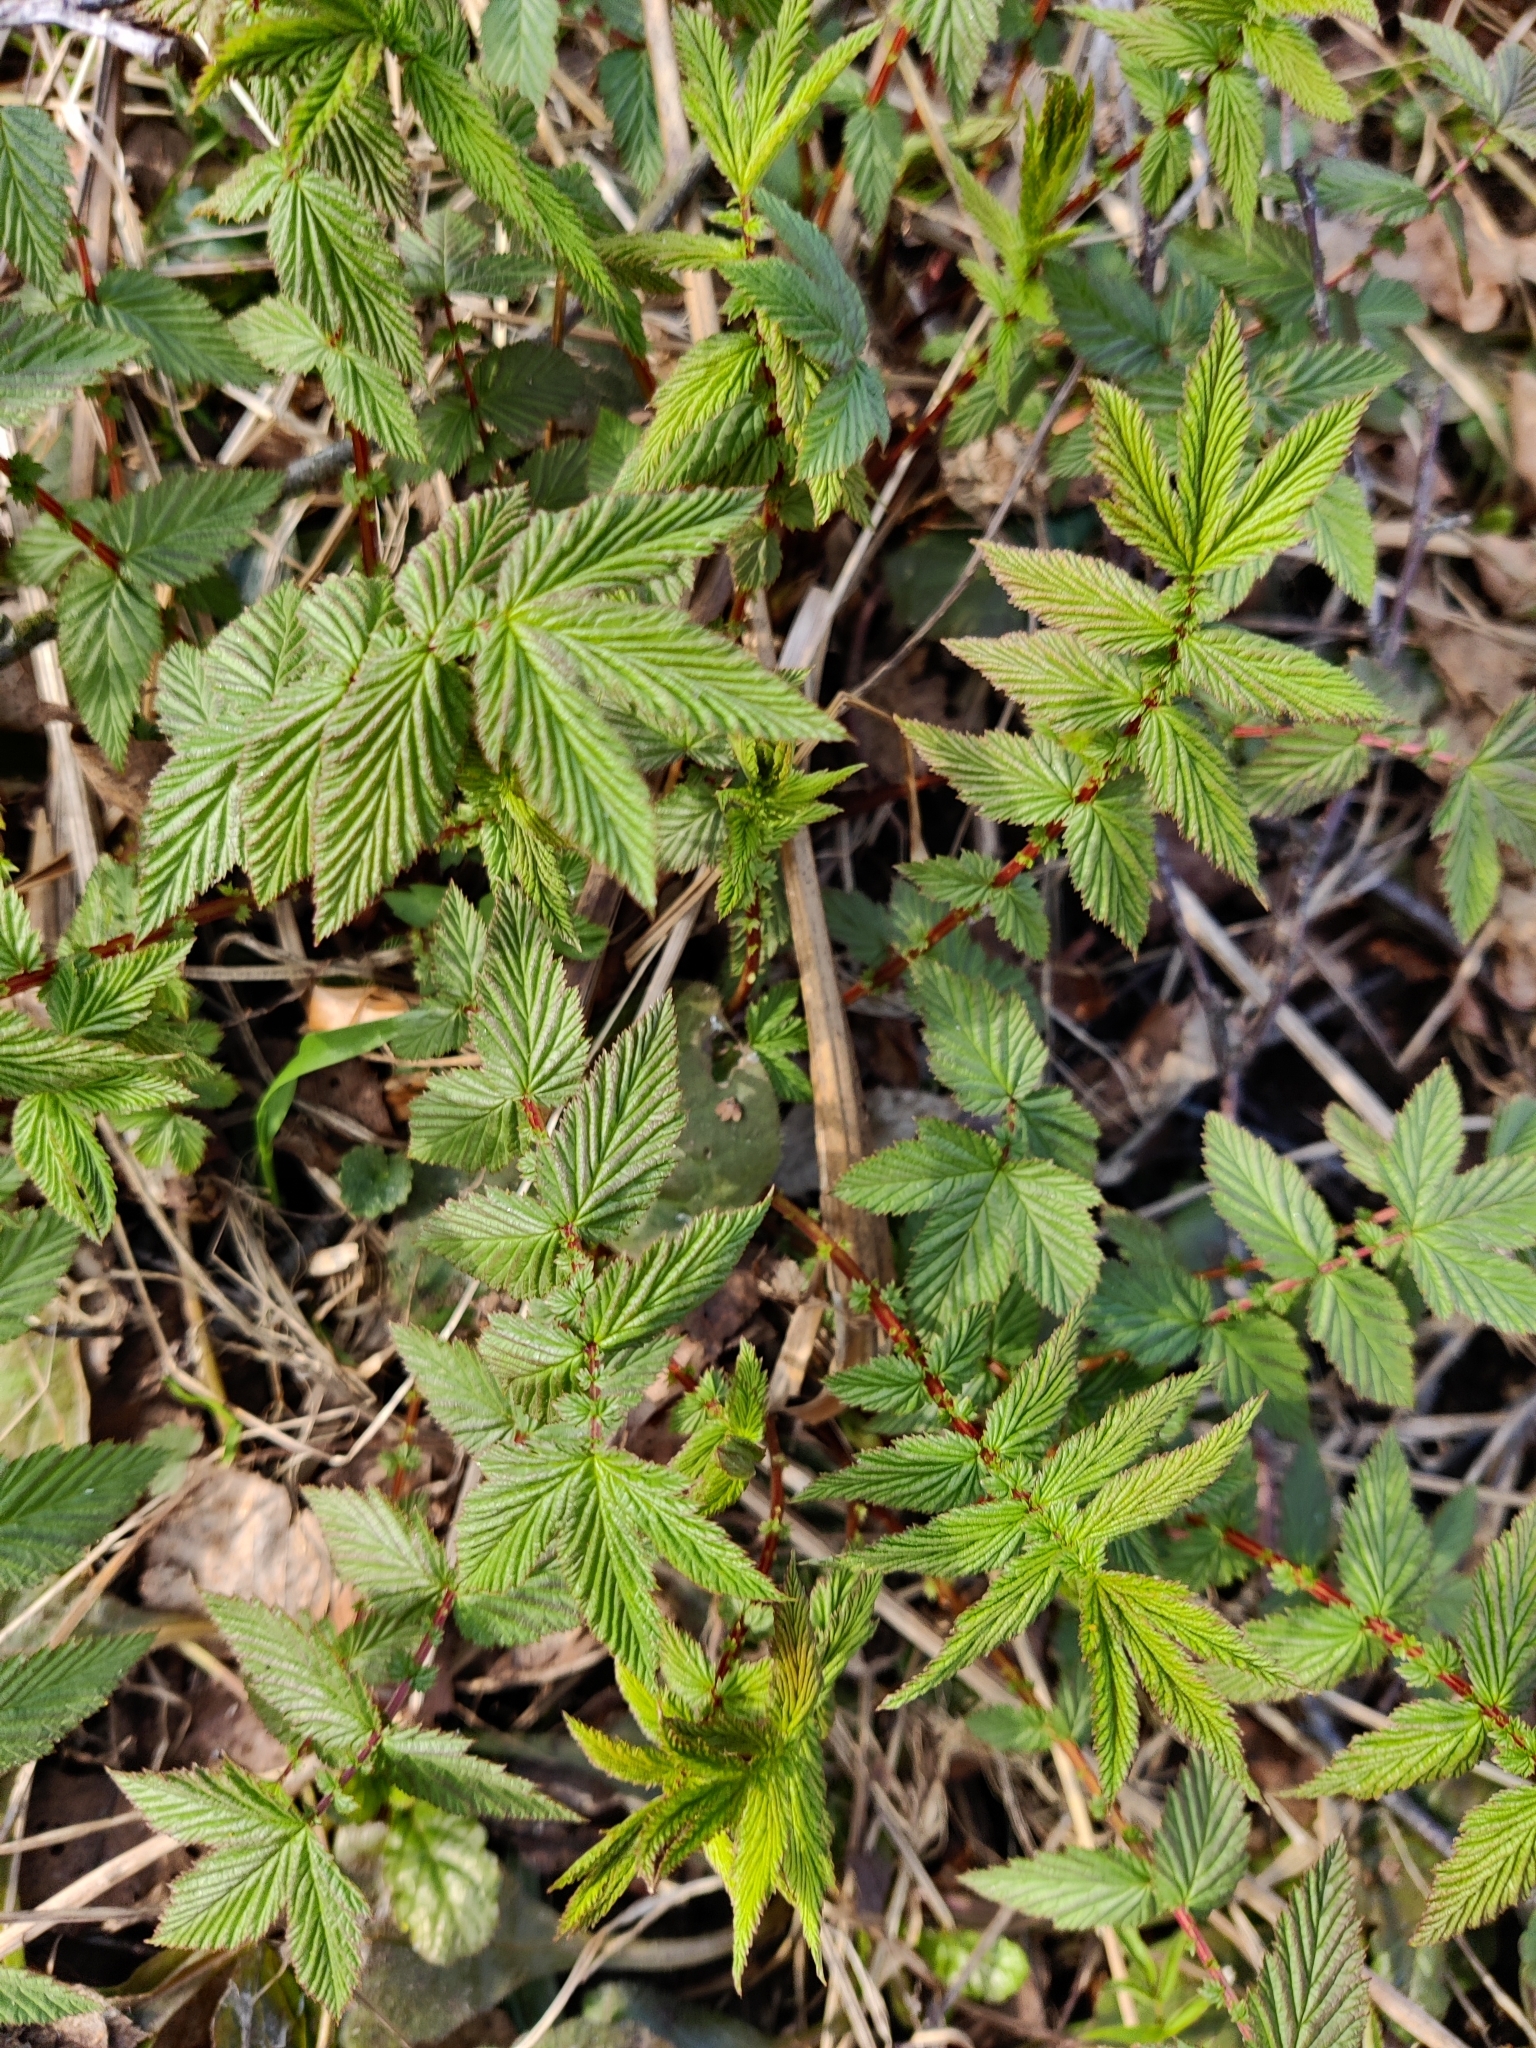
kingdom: Plantae
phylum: Tracheophyta
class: Magnoliopsida
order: Rosales
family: Rosaceae
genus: Filipendula
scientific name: Filipendula ulmaria
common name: Meadowsweet
